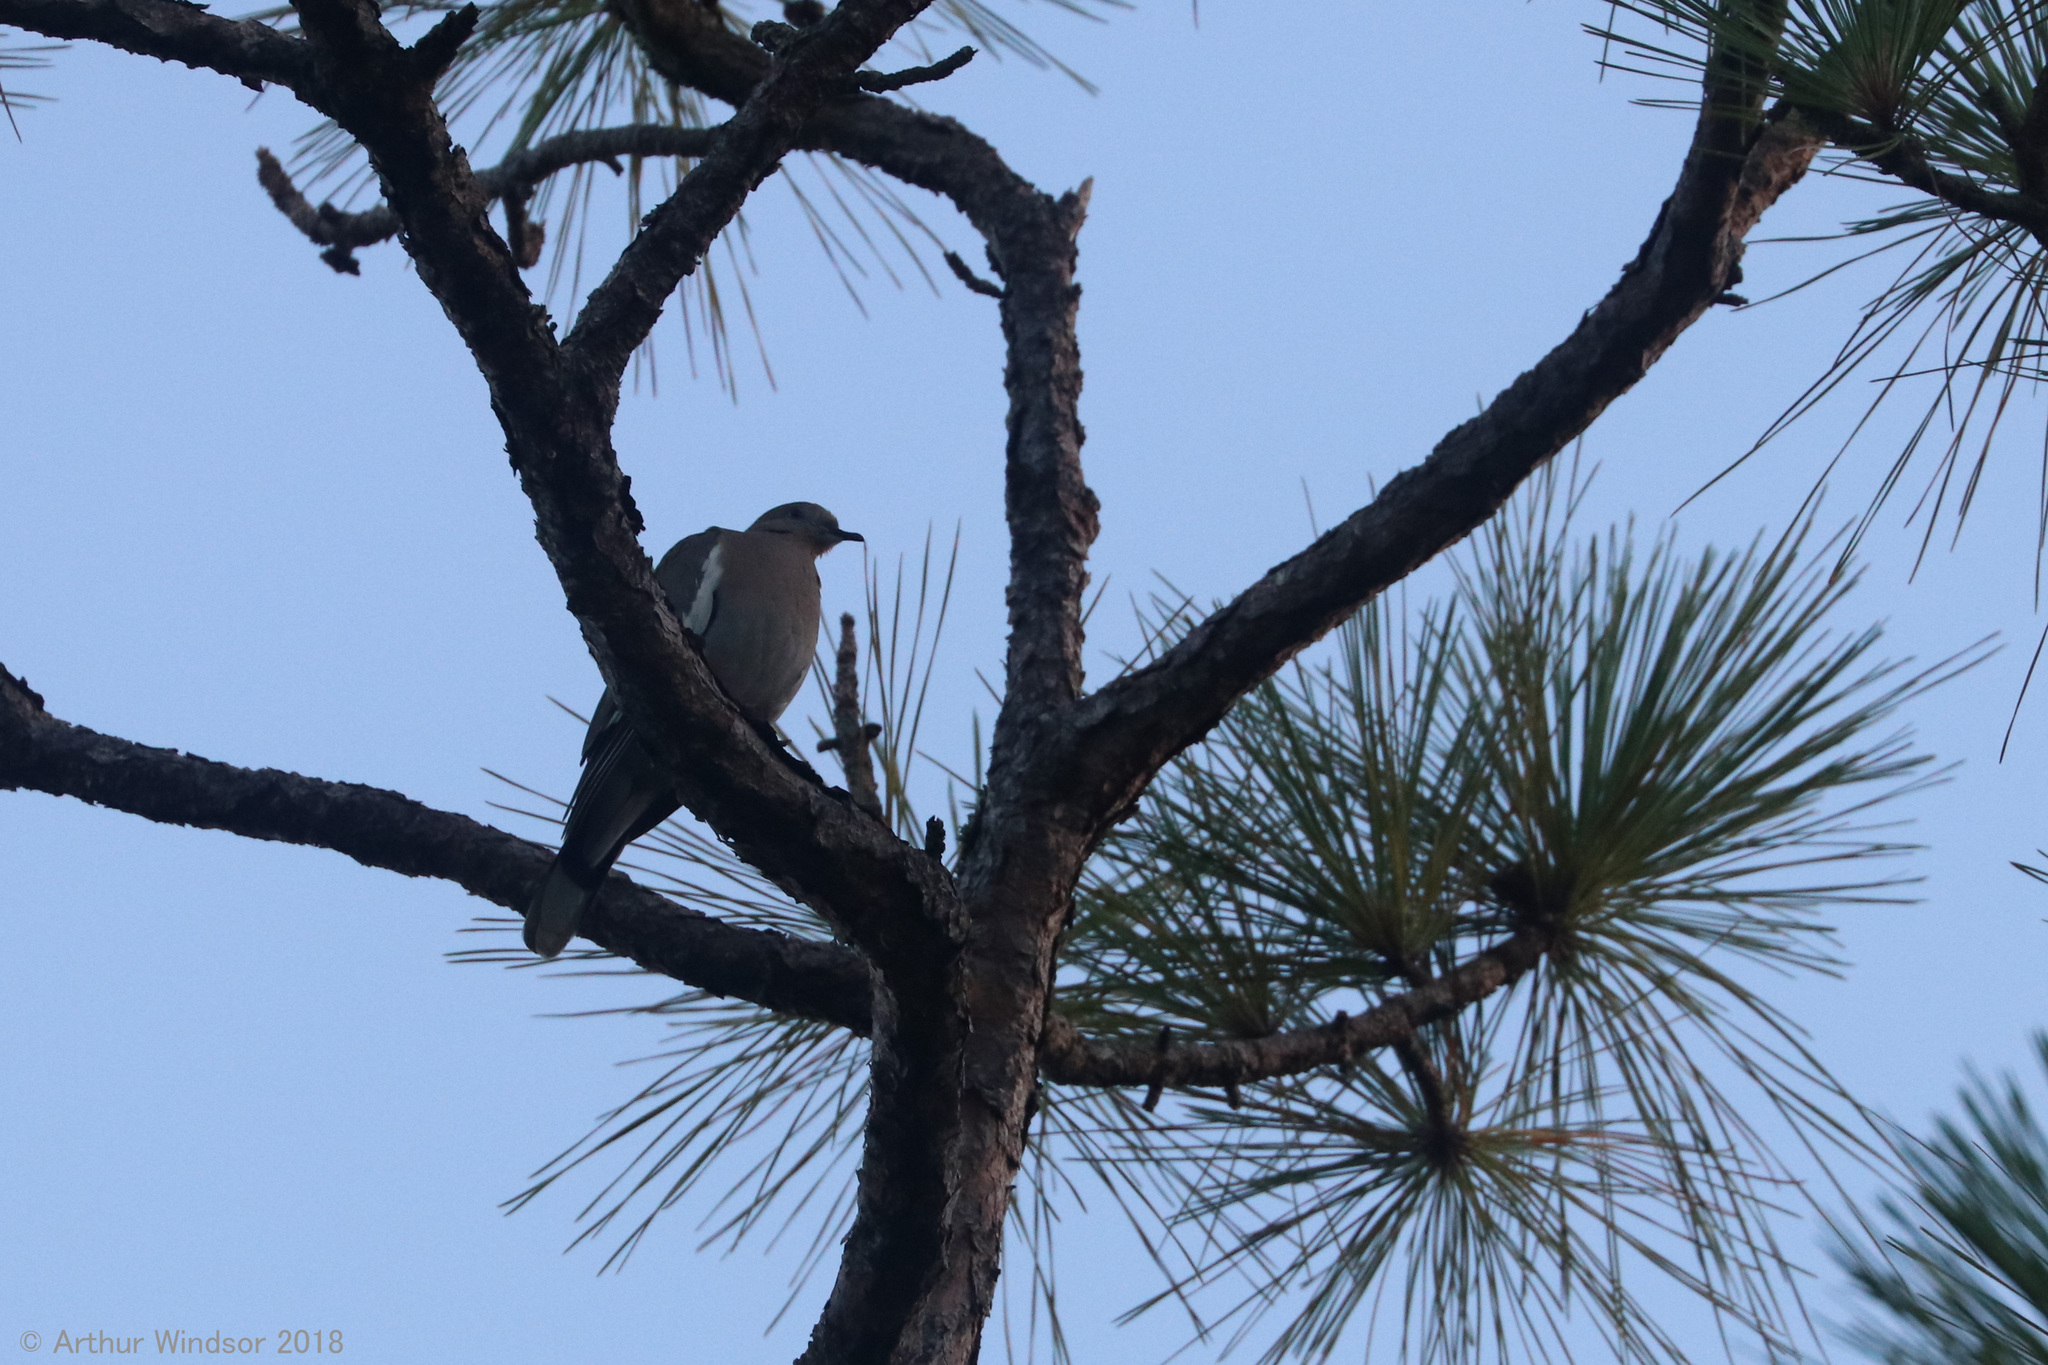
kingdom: Animalia
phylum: Chordata
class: Aves
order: Columbiformes
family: Columbidae
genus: Zenaida
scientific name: Zenaida asiatica
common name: White-winged dove
